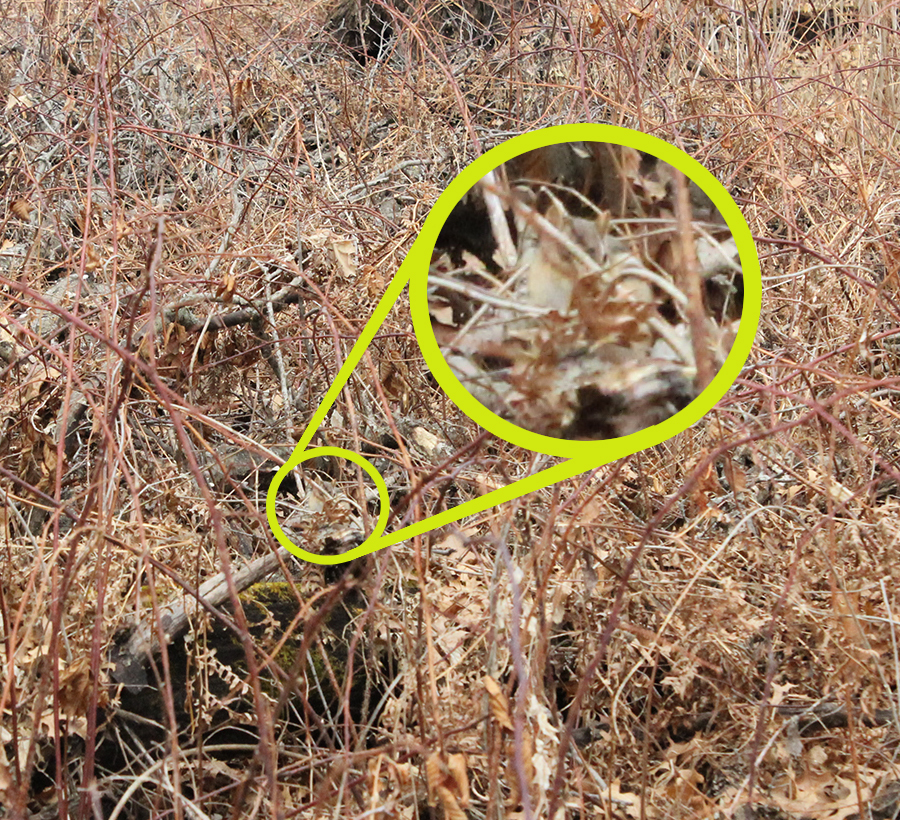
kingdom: Animalia
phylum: Chordata
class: Mammalia
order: Rodentia
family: Sciuridae
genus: Tamias
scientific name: Tamias striatus
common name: Eastern chipmunk
